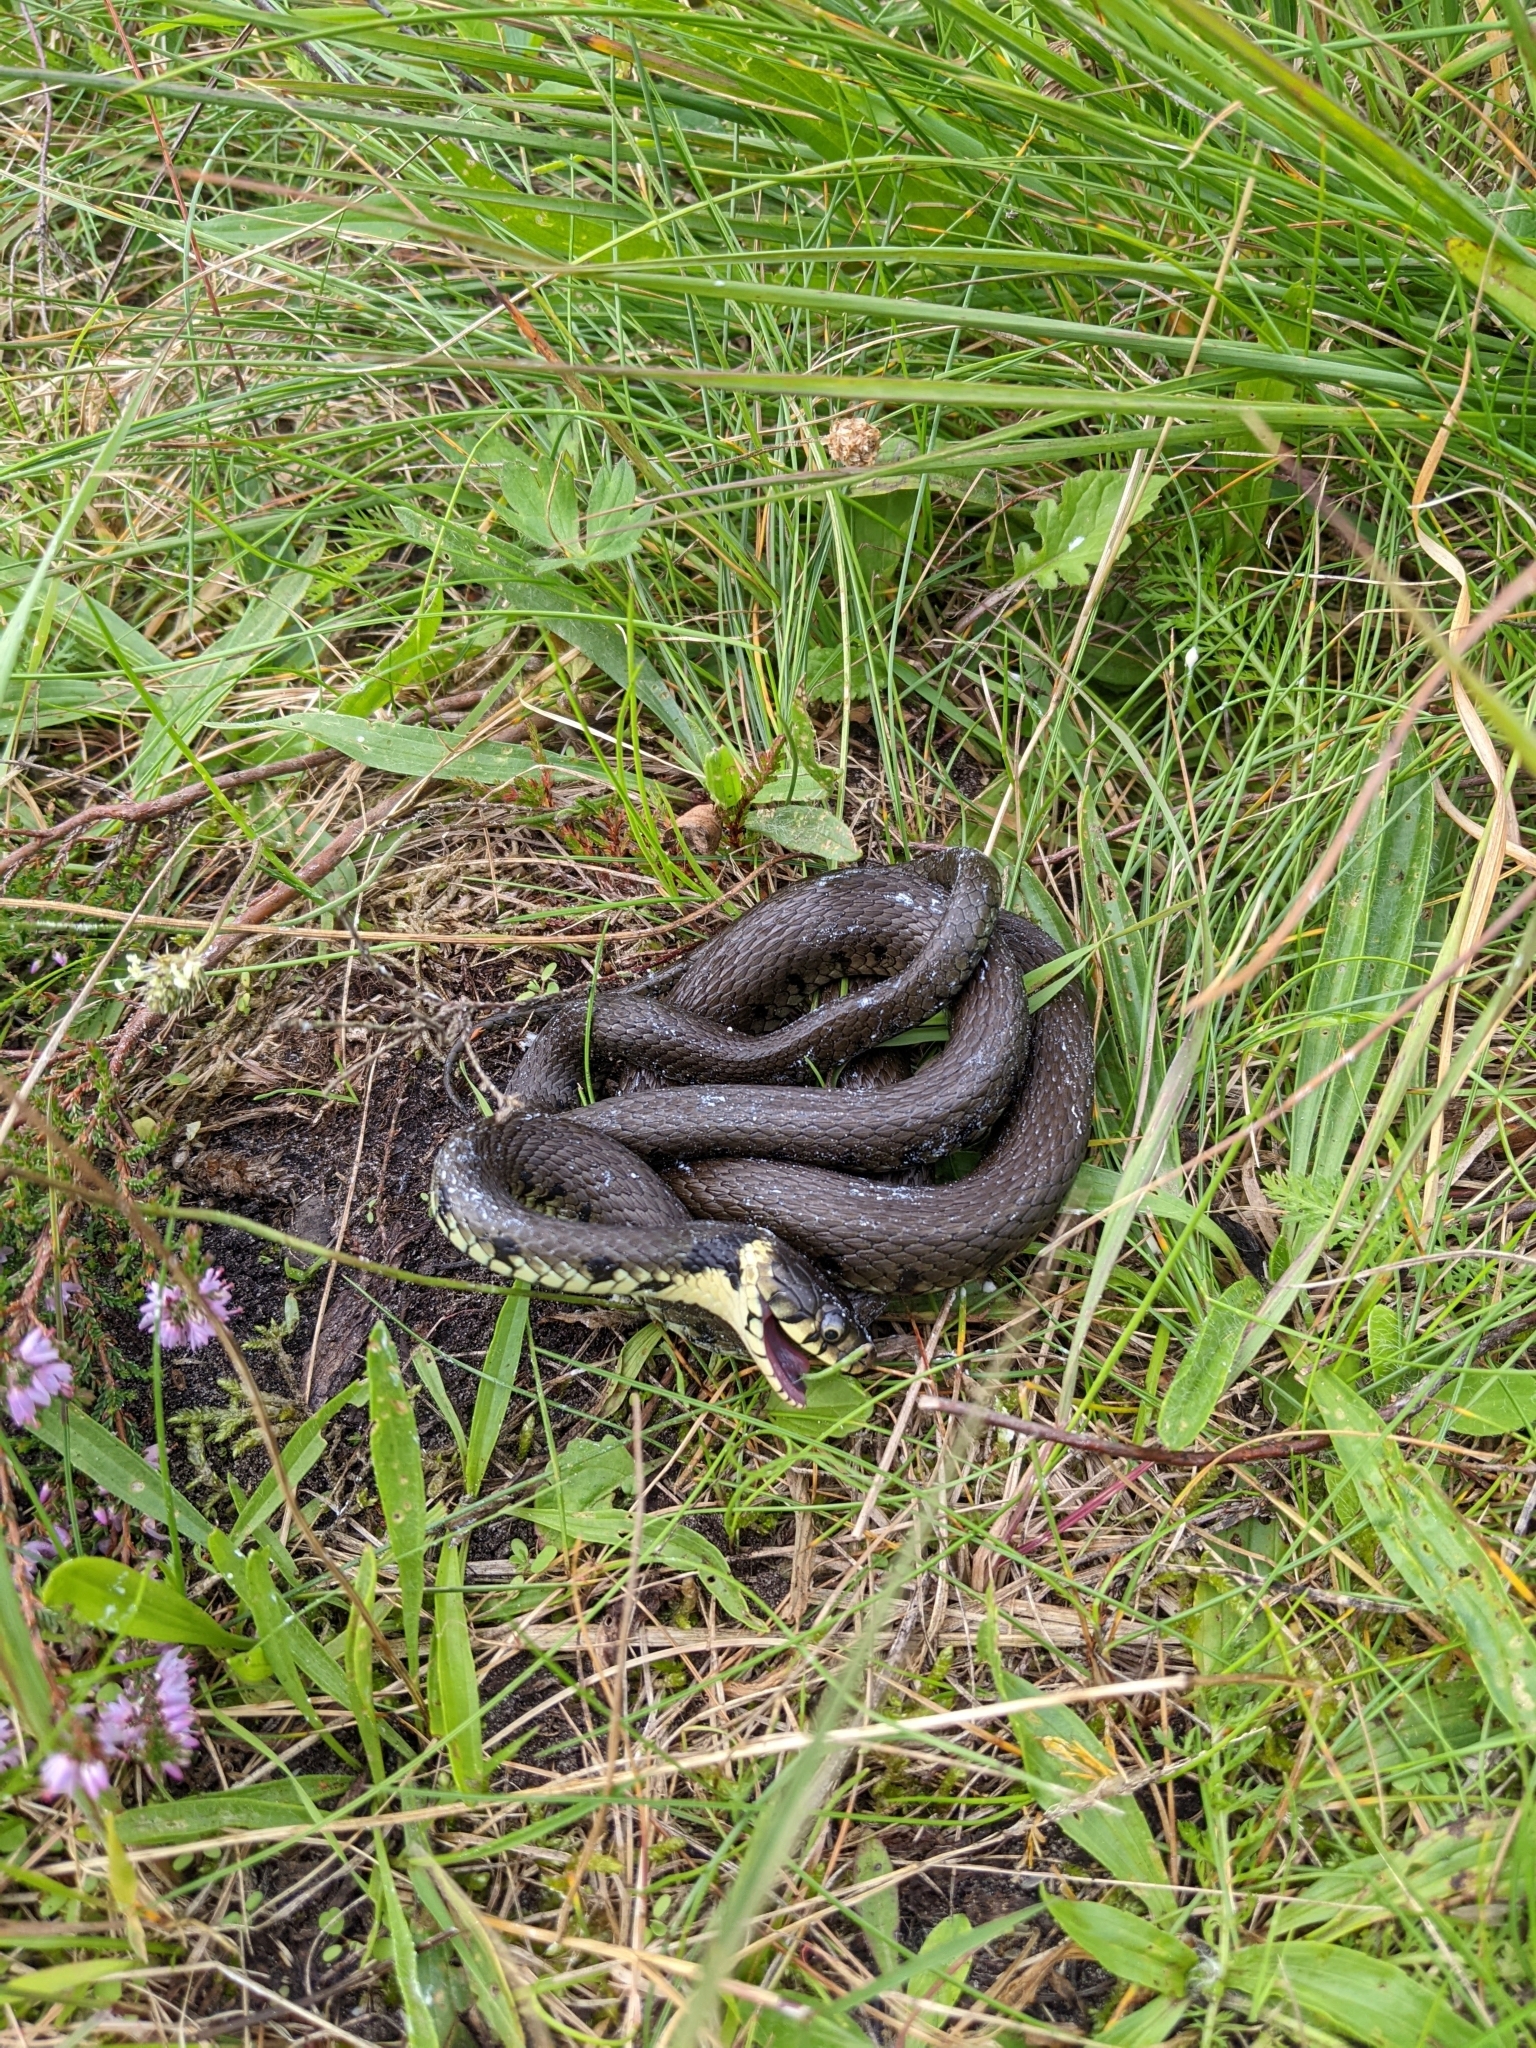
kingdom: Animalia
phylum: Chordata
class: Squamata
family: Colubridae
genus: Natrix
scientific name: Natrix helvetica
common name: Banded grass snake
